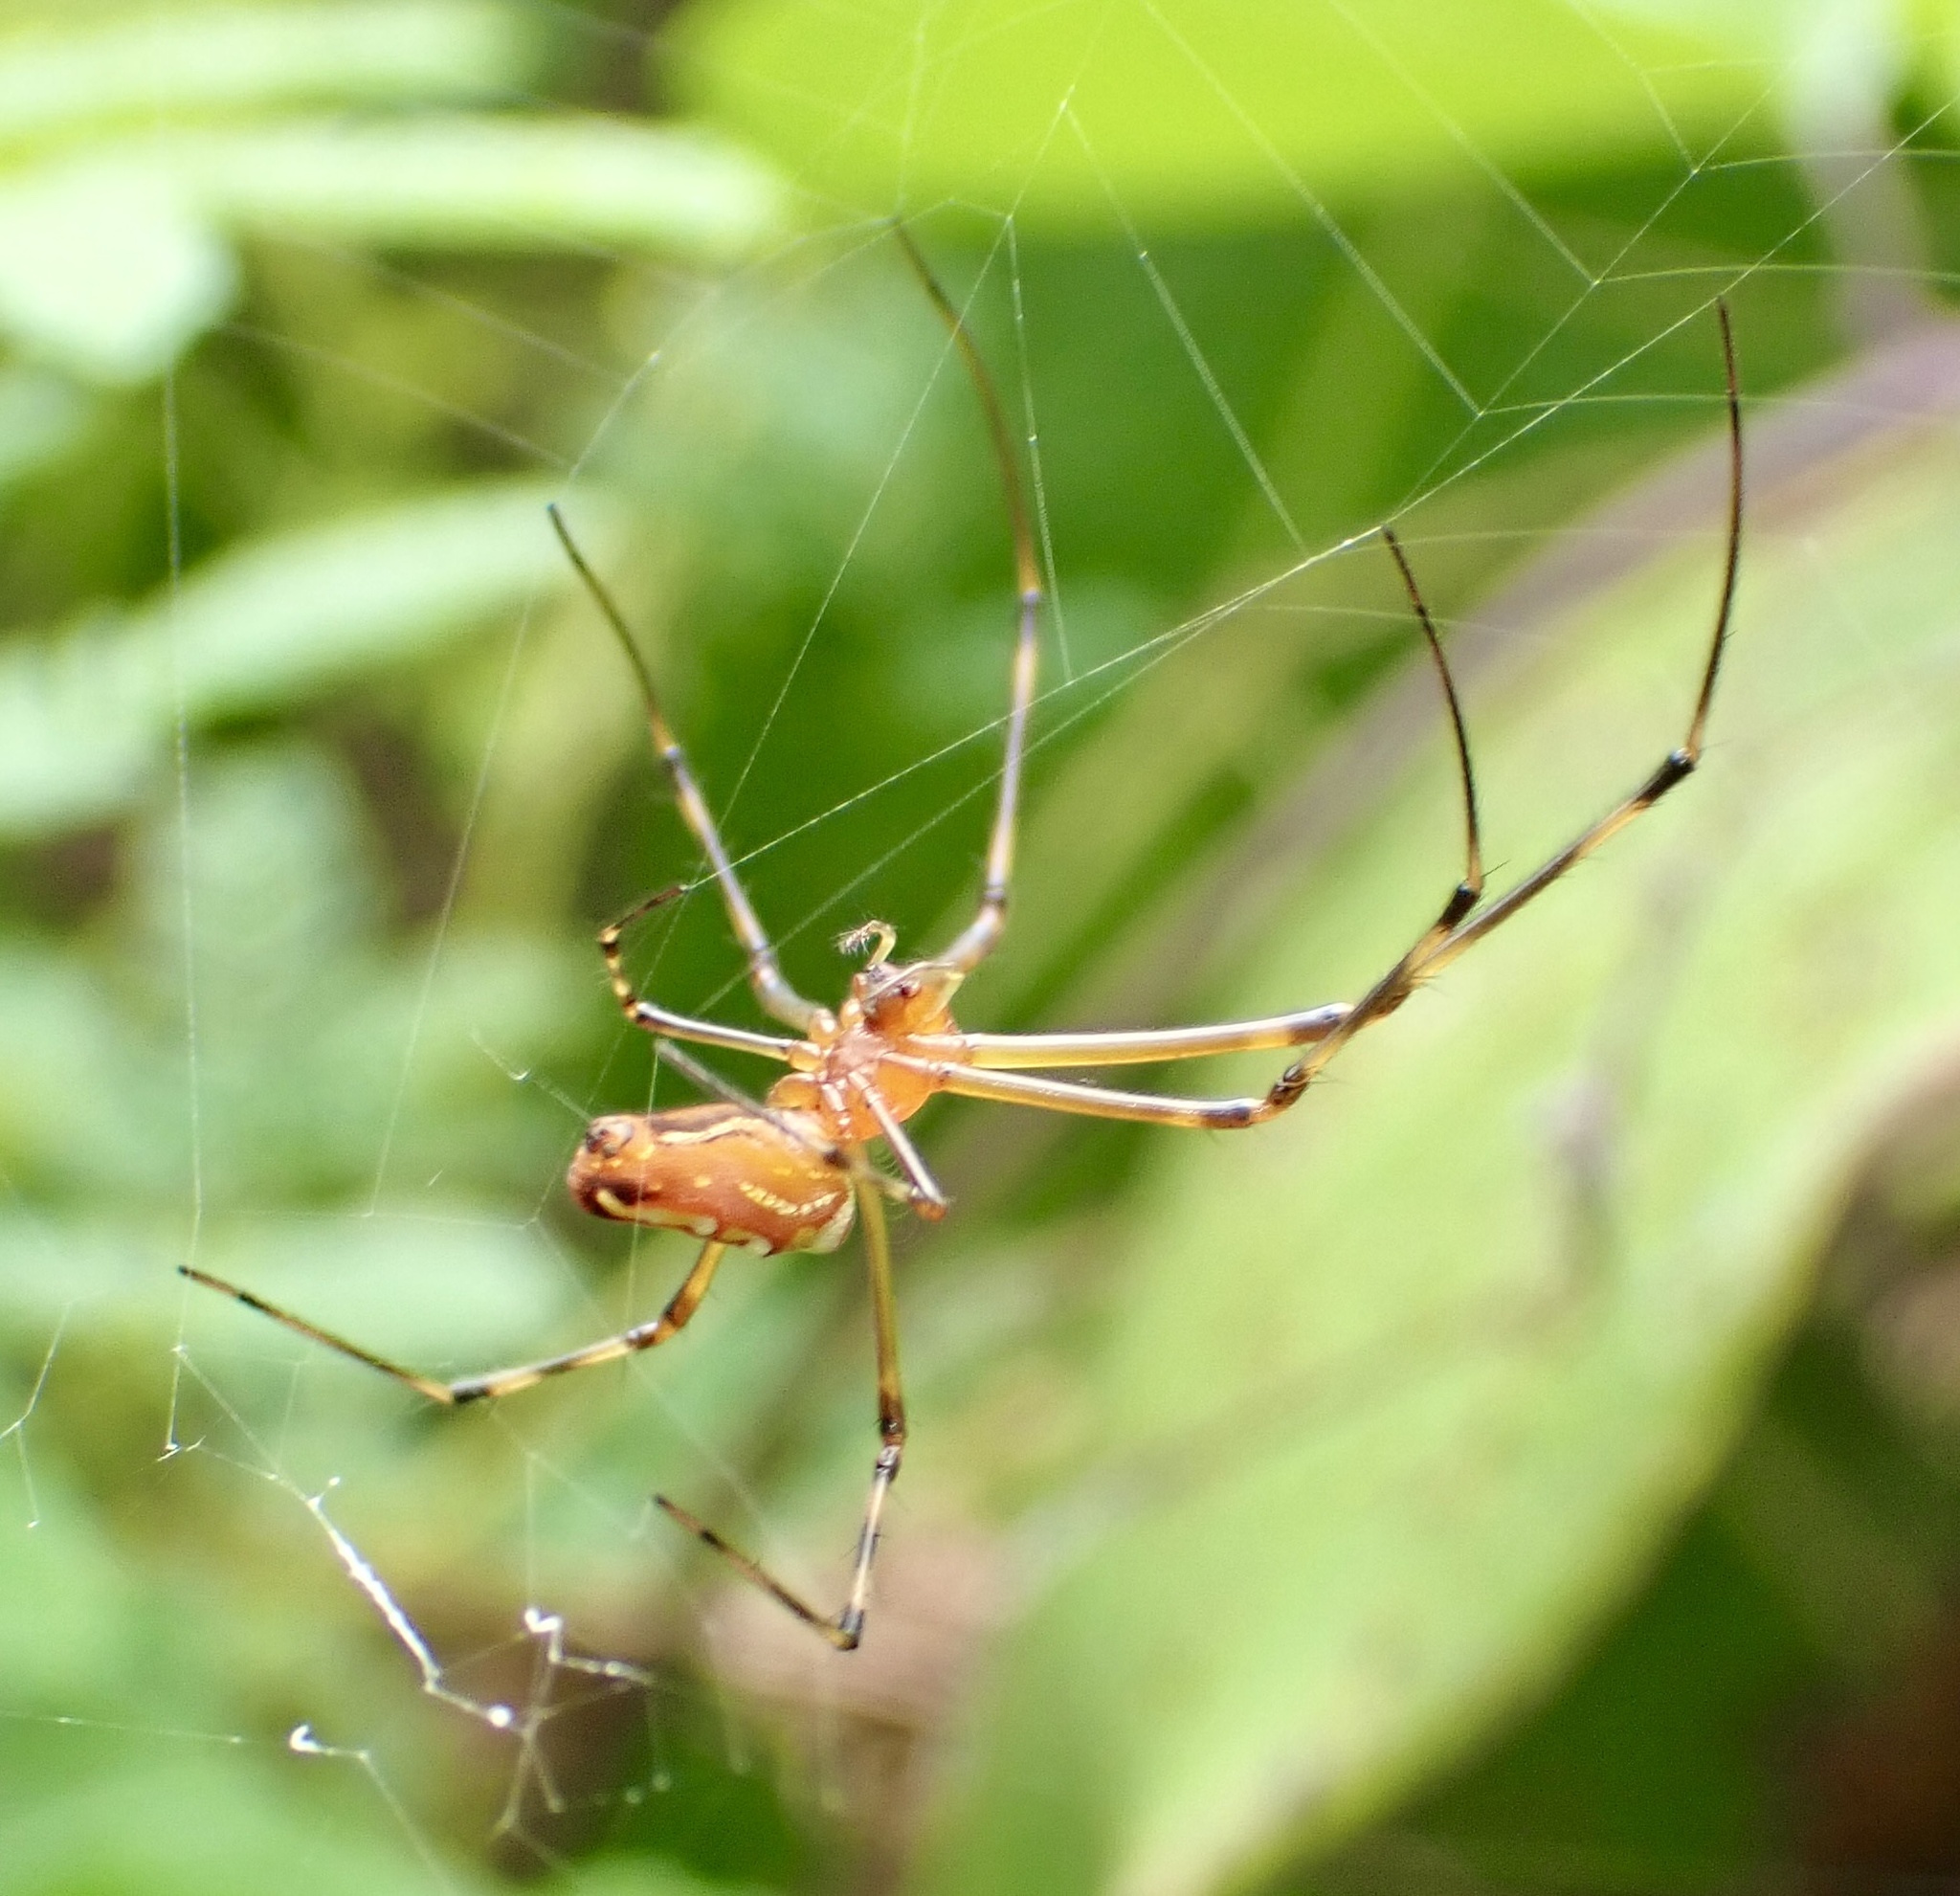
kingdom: Animalia
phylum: Arthropoda
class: Arachnida
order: Araneae
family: Tetragnathidae
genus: Leucauge
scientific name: Leucauge granulata
